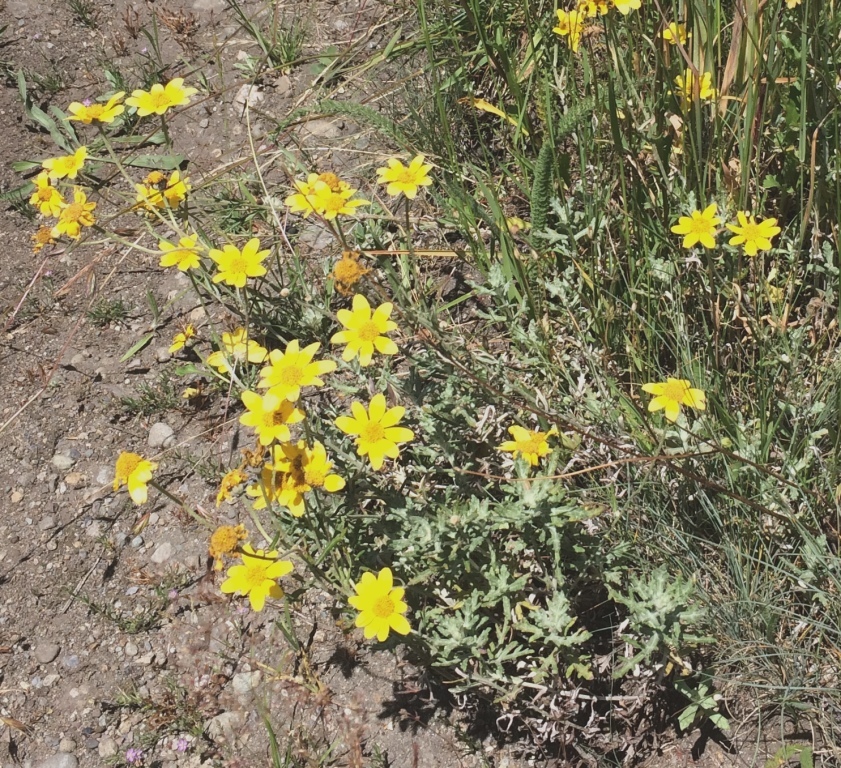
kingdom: Plantae
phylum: Tracheophyta
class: Magnoliopsida
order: Asterales
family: Asteraceae
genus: Eriophyllum
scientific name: Eriophyllum lanatum
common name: Common woolly-sunflower
